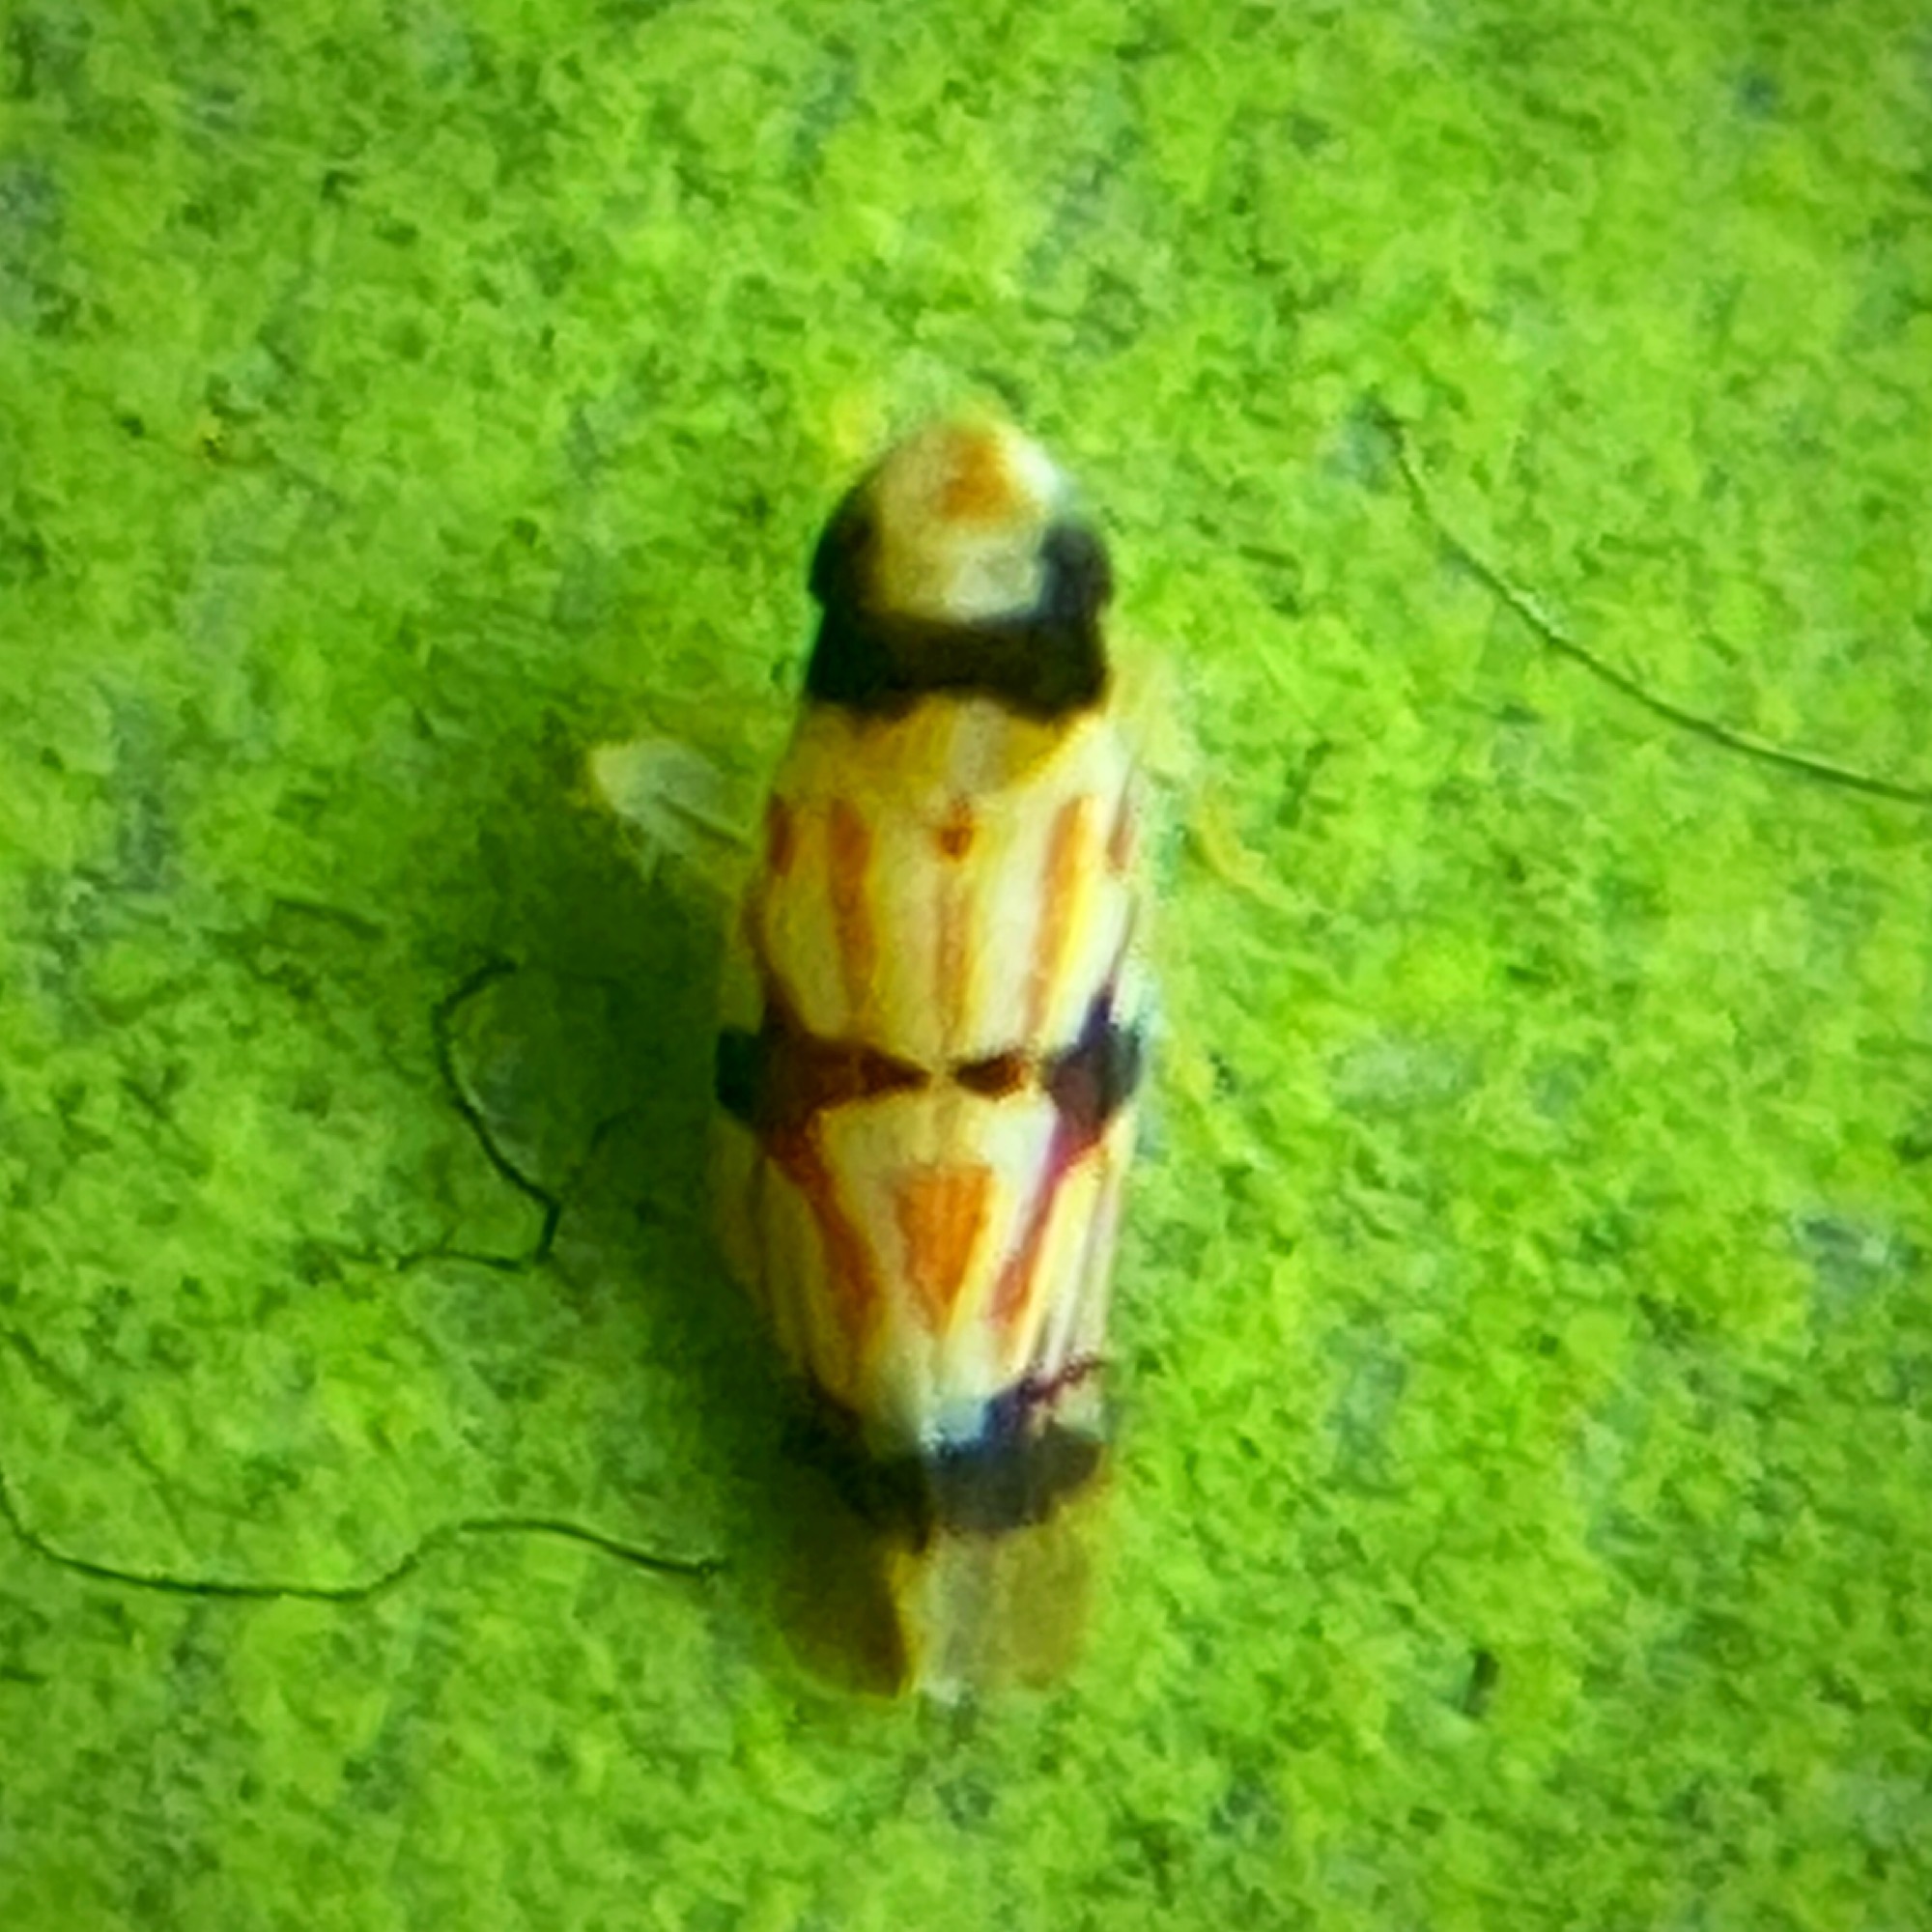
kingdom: Animalia
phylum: Arthropoda
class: Insecta
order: Hemiptera
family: Cicadellidae
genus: Erythroneura
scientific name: Erythroneura calycula
